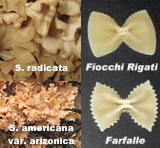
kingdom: Fungi
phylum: Basidiomycota
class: Agaricomycetes
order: Polyporales
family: Sparassidaceae
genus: Sparassis
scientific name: Sparassis americana
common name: American cauliflower mushroom
